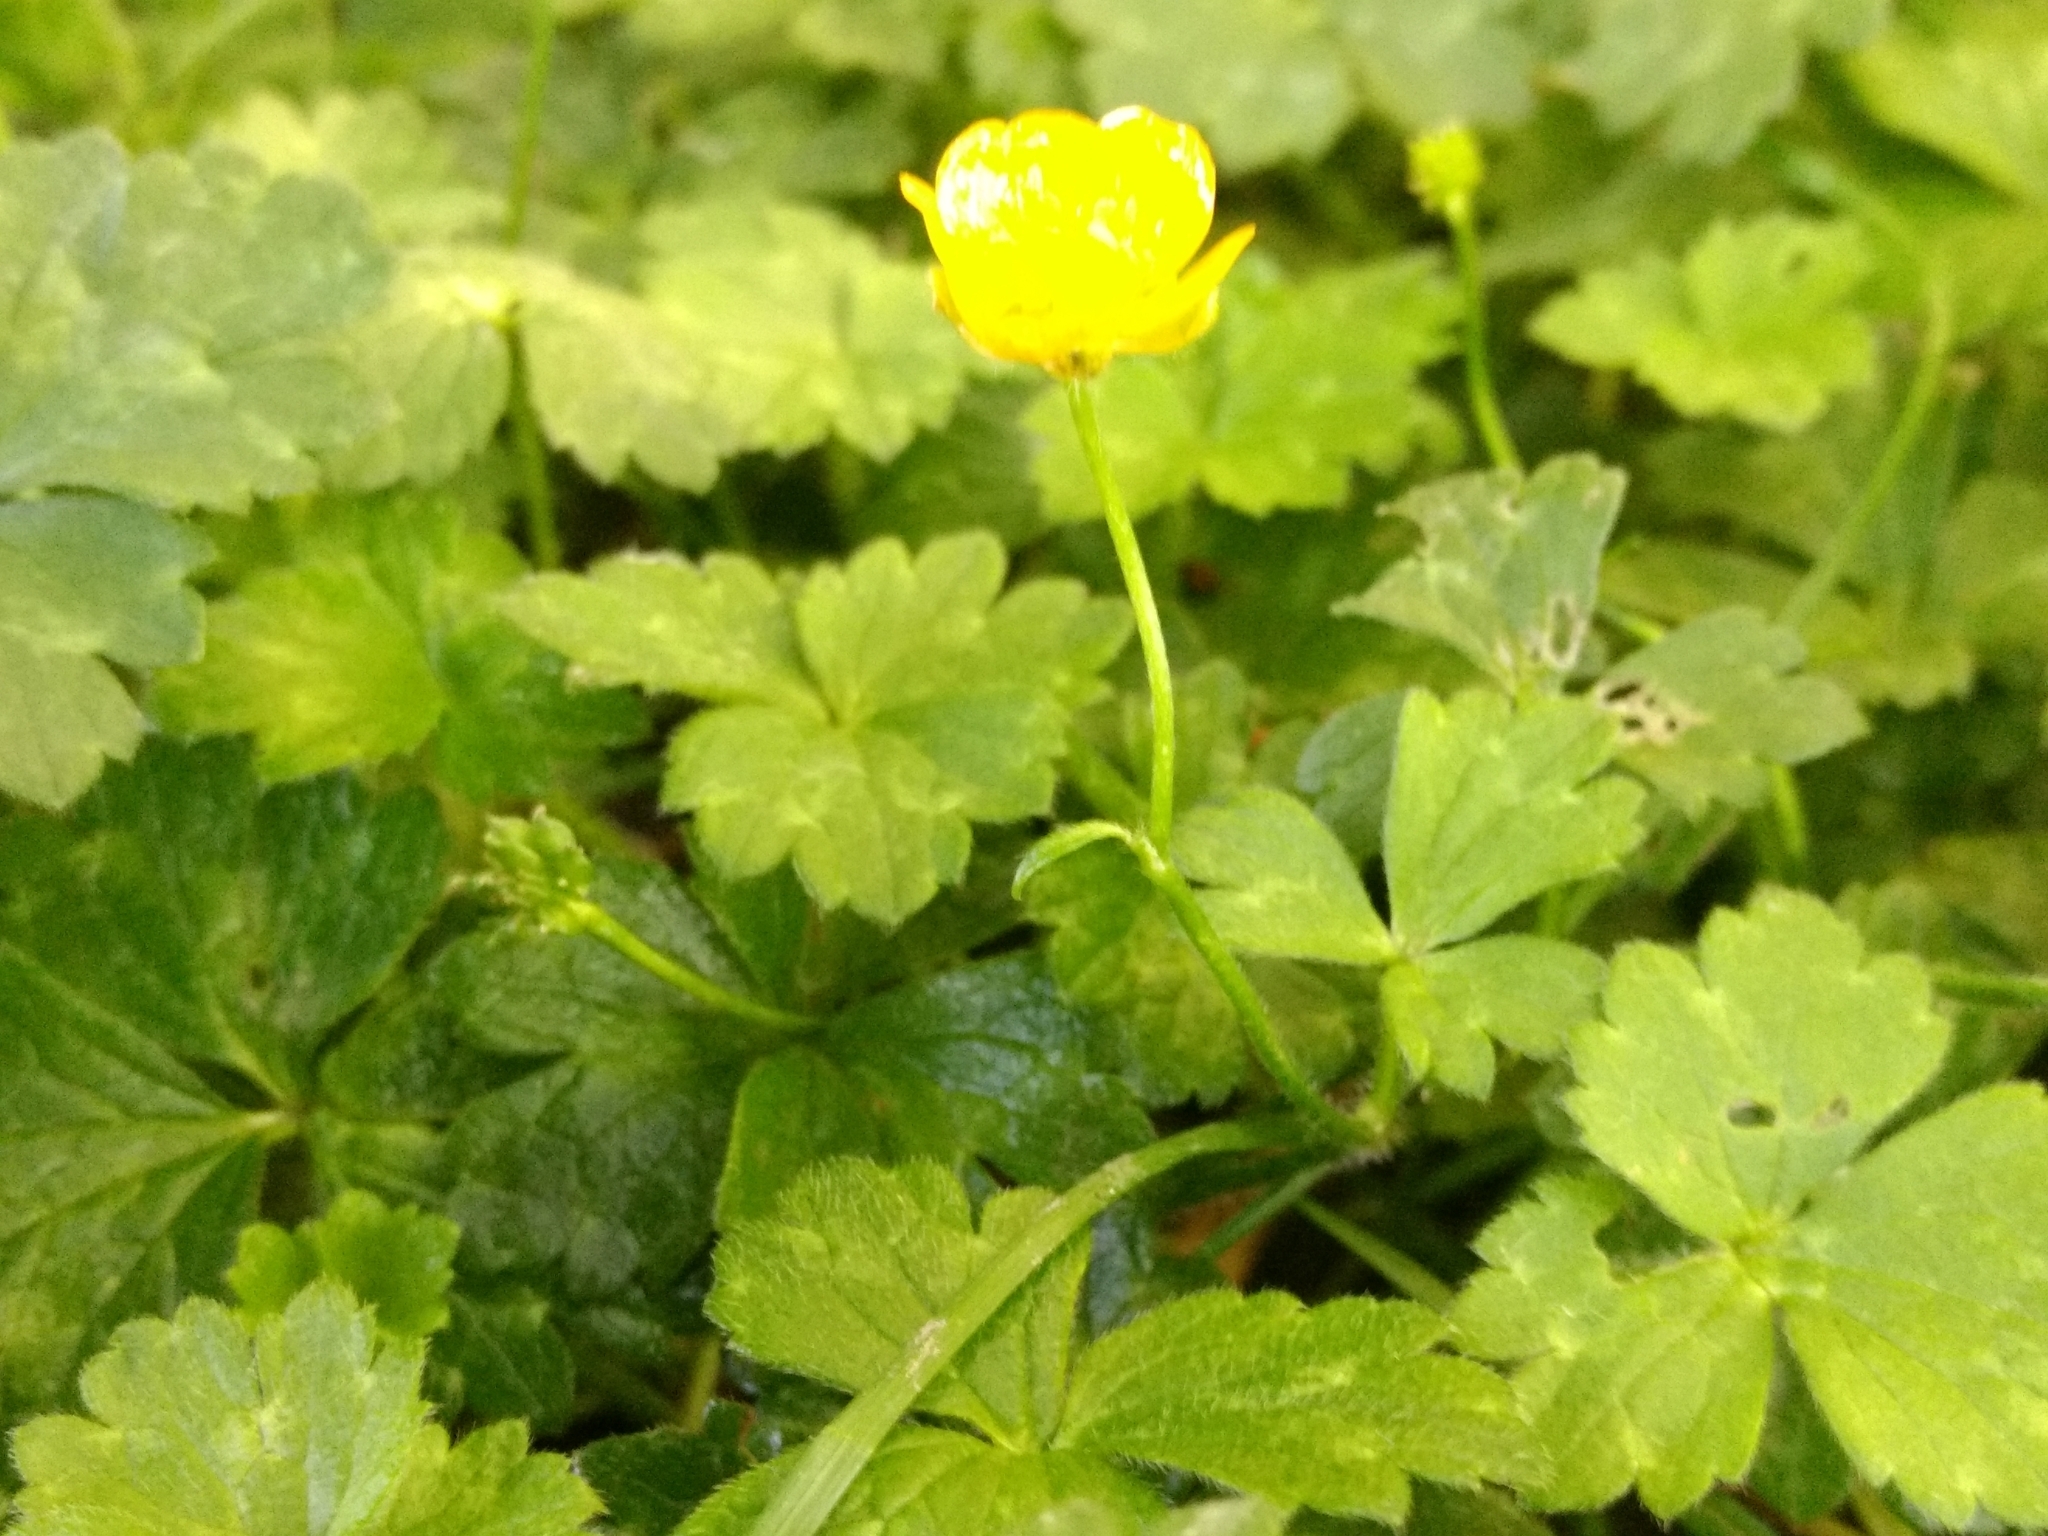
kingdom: Plantae
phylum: Tracheophyta
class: Magnoliopsida
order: Ranunculales
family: Ranunculaceae
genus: Ranunculus
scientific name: Ranunculus repens
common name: Creeping buttercup
